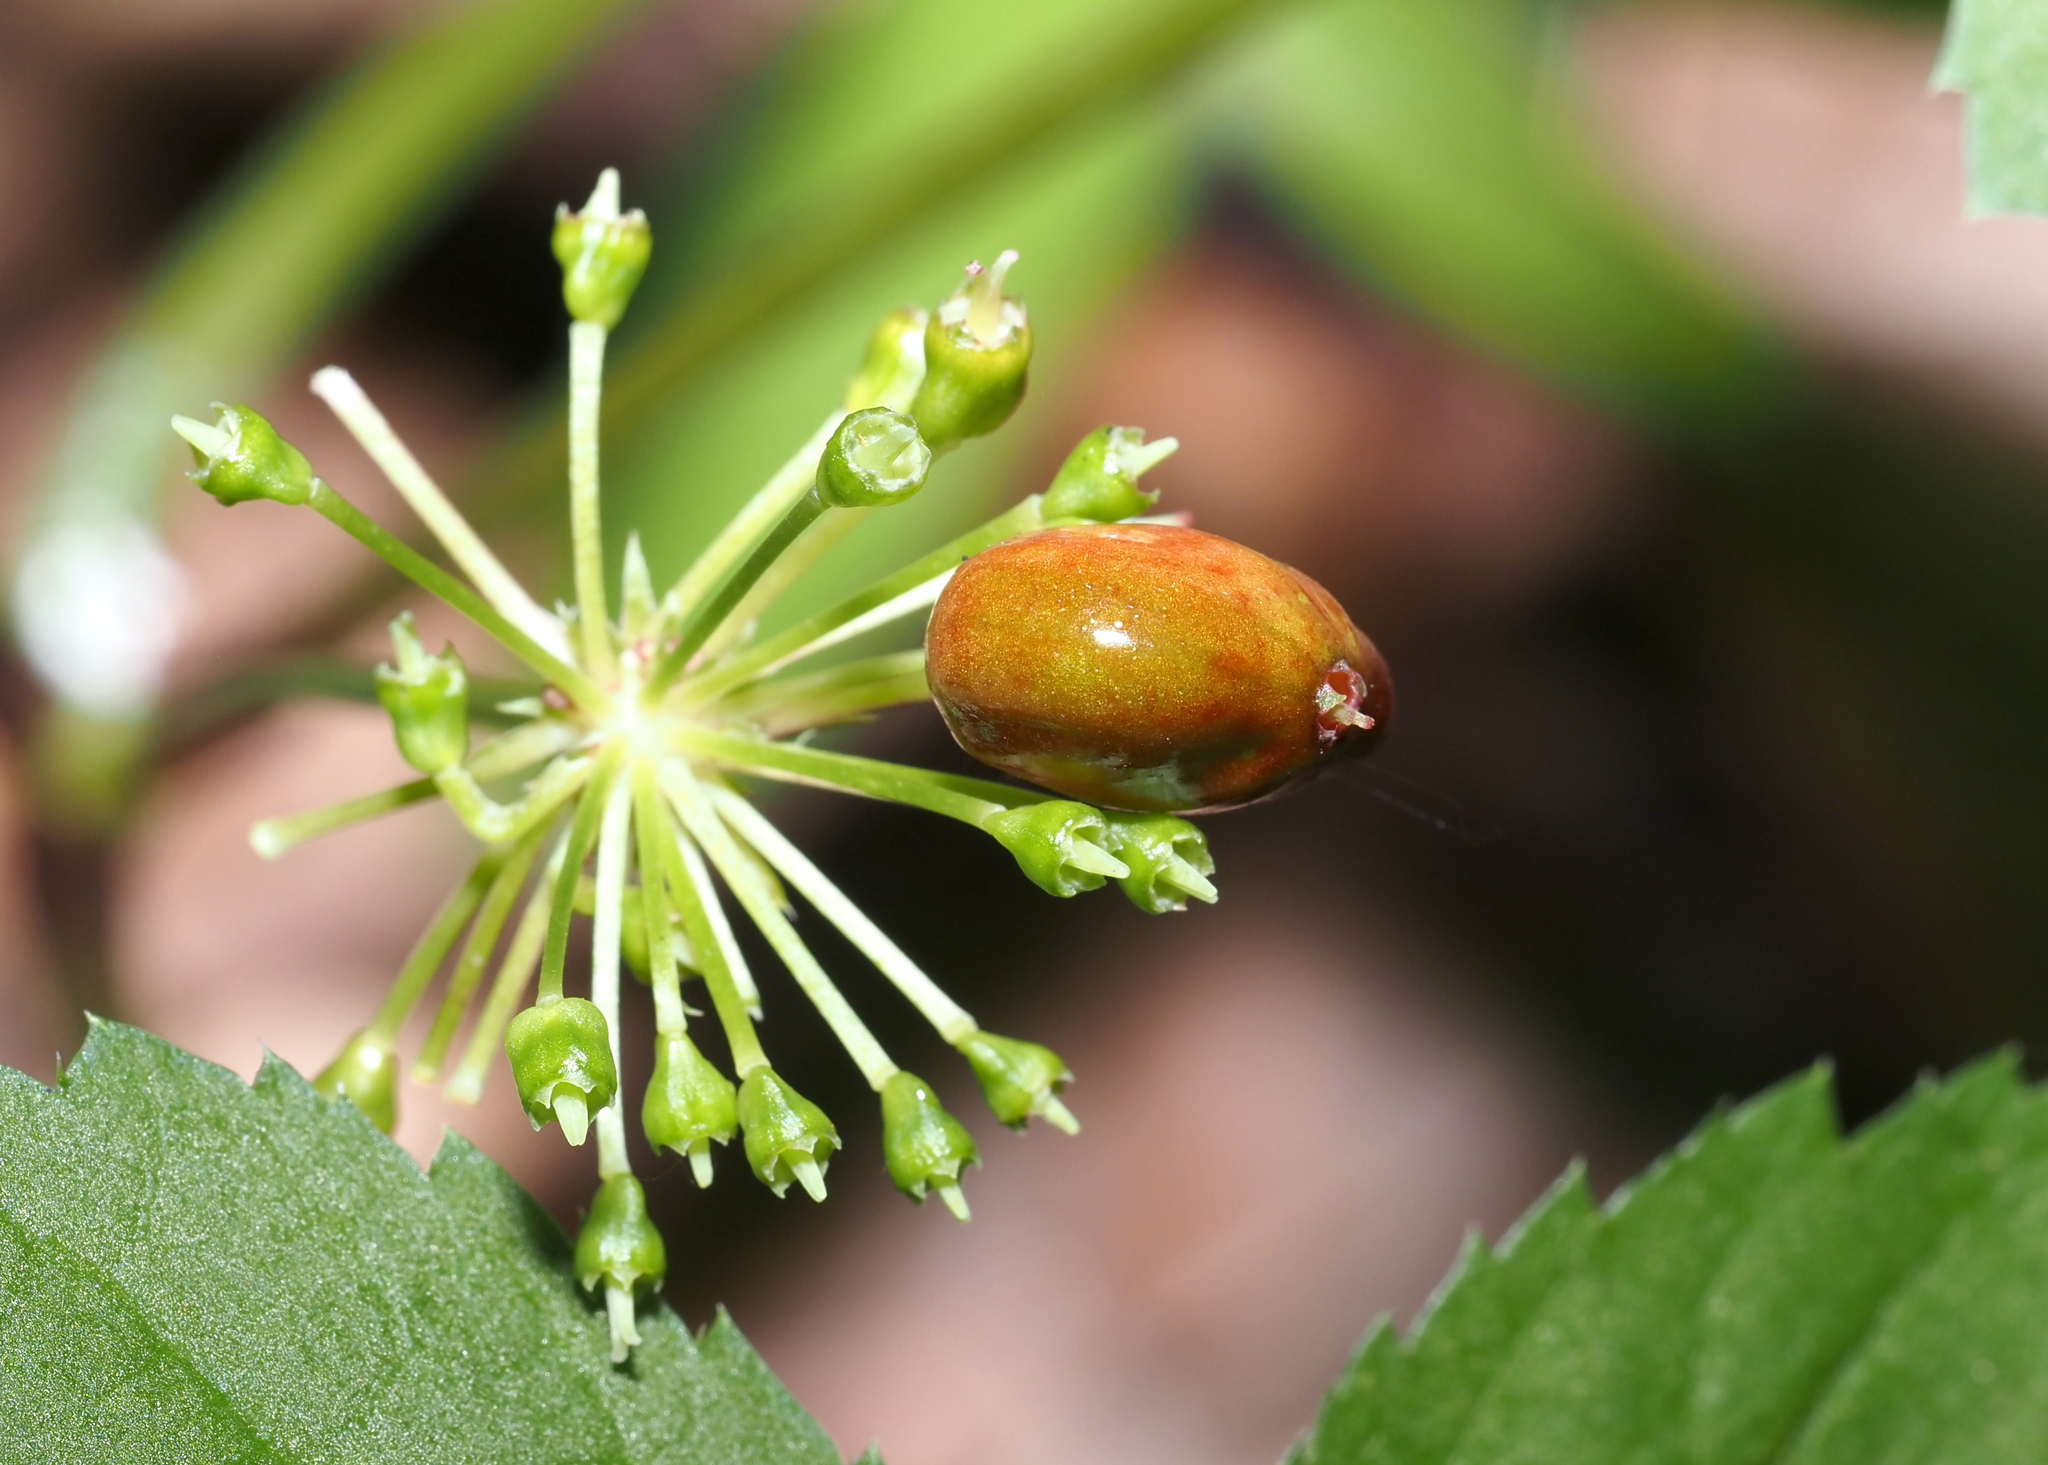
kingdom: Plantae
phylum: Tracheophyta
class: Magnoliopsida
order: Apiales
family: Araliaceae
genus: Panax
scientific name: Panax quinquefolius
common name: American ginseng
